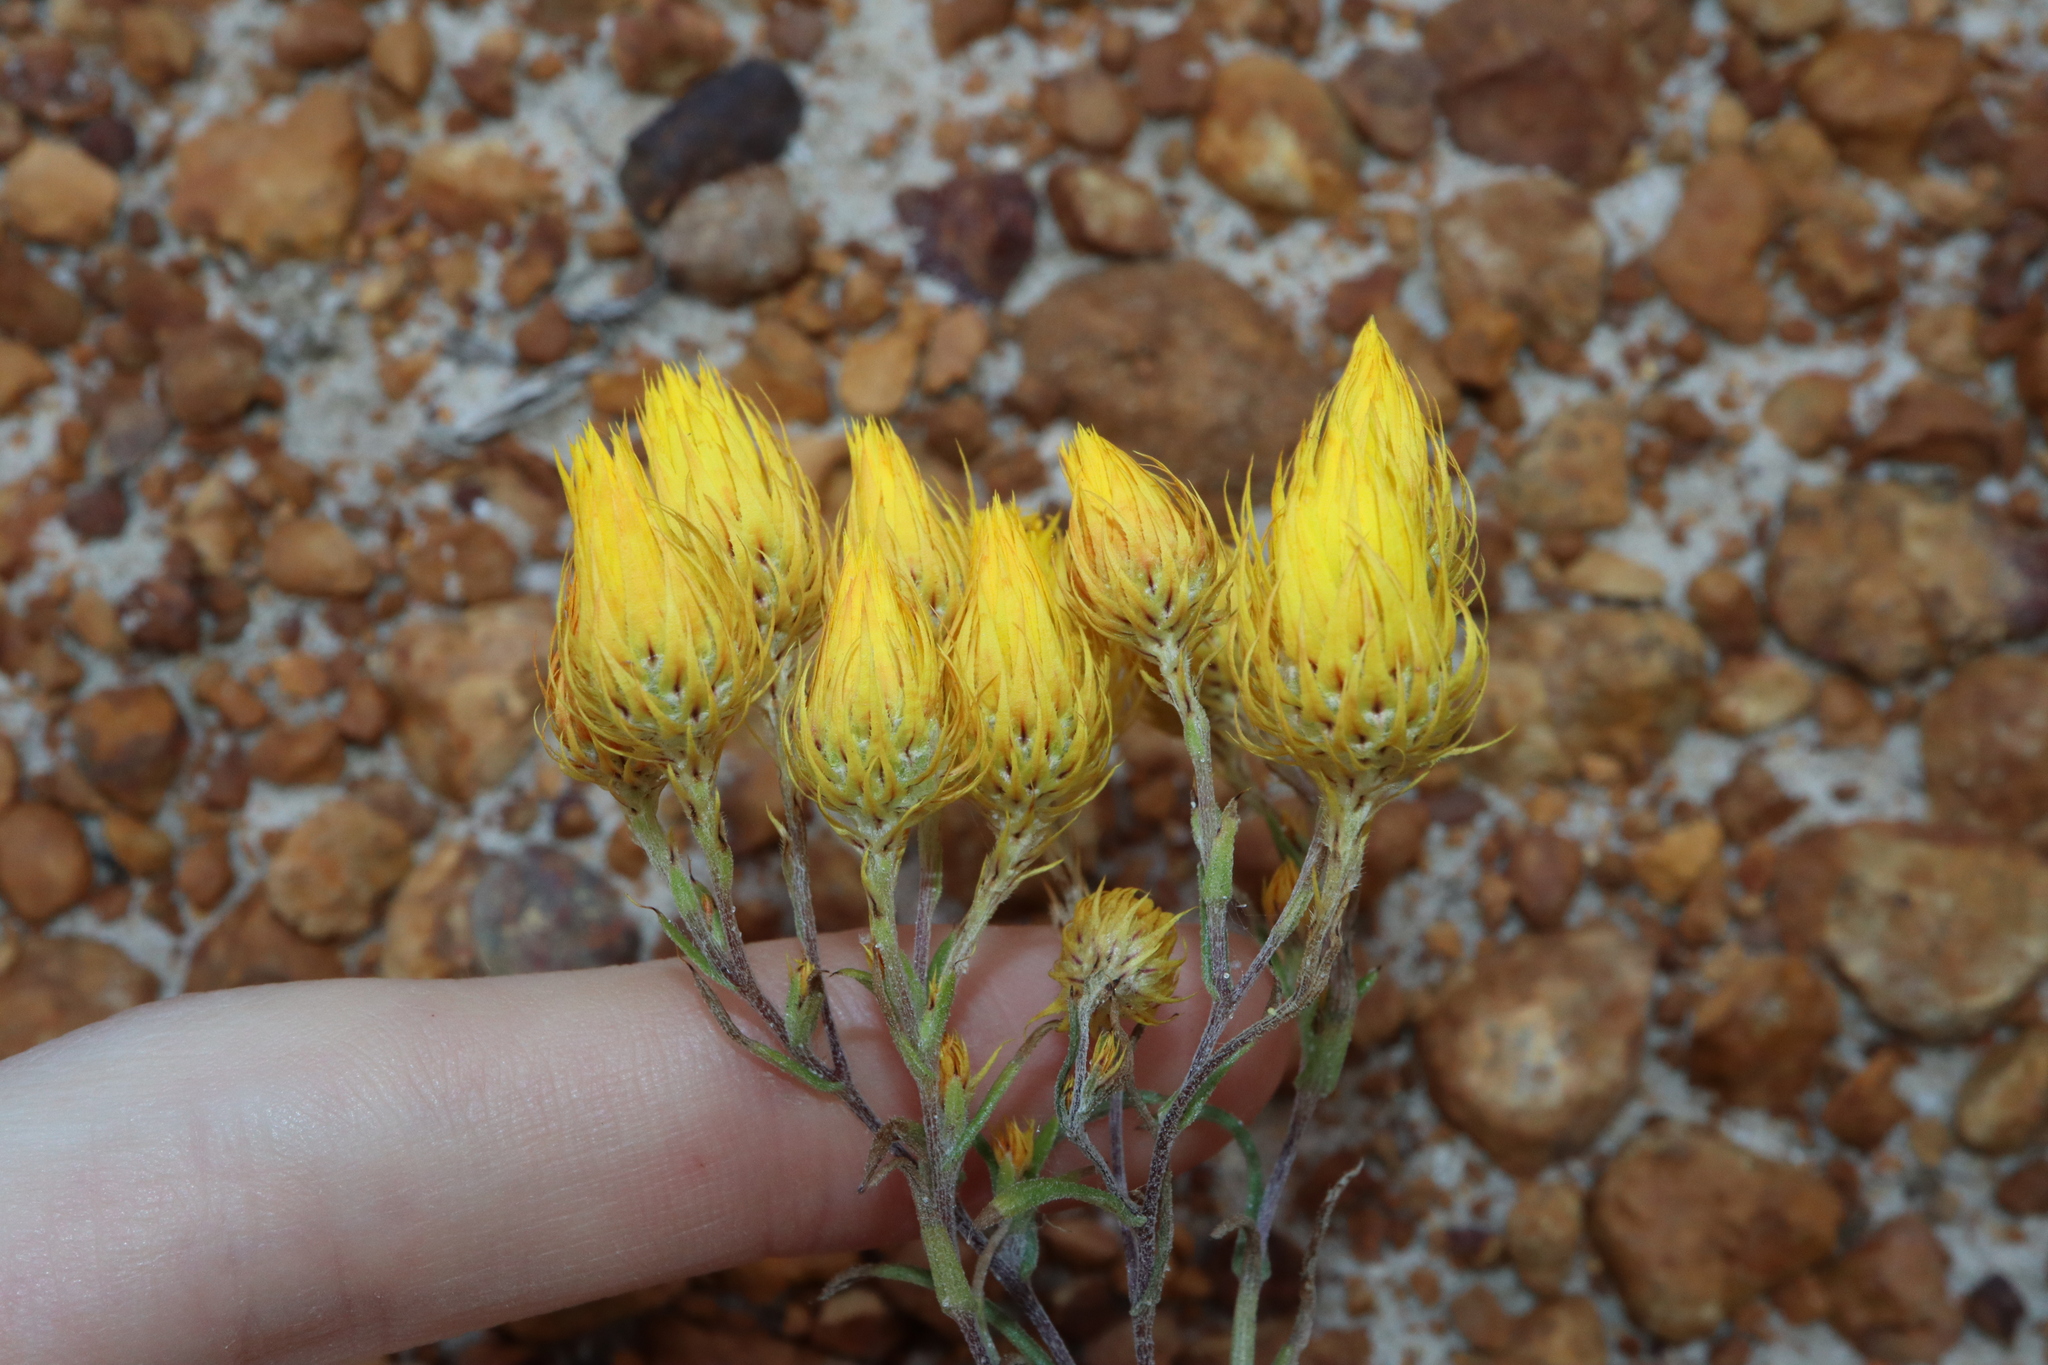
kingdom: Plantae
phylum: Tracheophyta
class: Magnoliopsida
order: Asterales
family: Asteraceae
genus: Waitzia
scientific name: Waitzia acuminata
